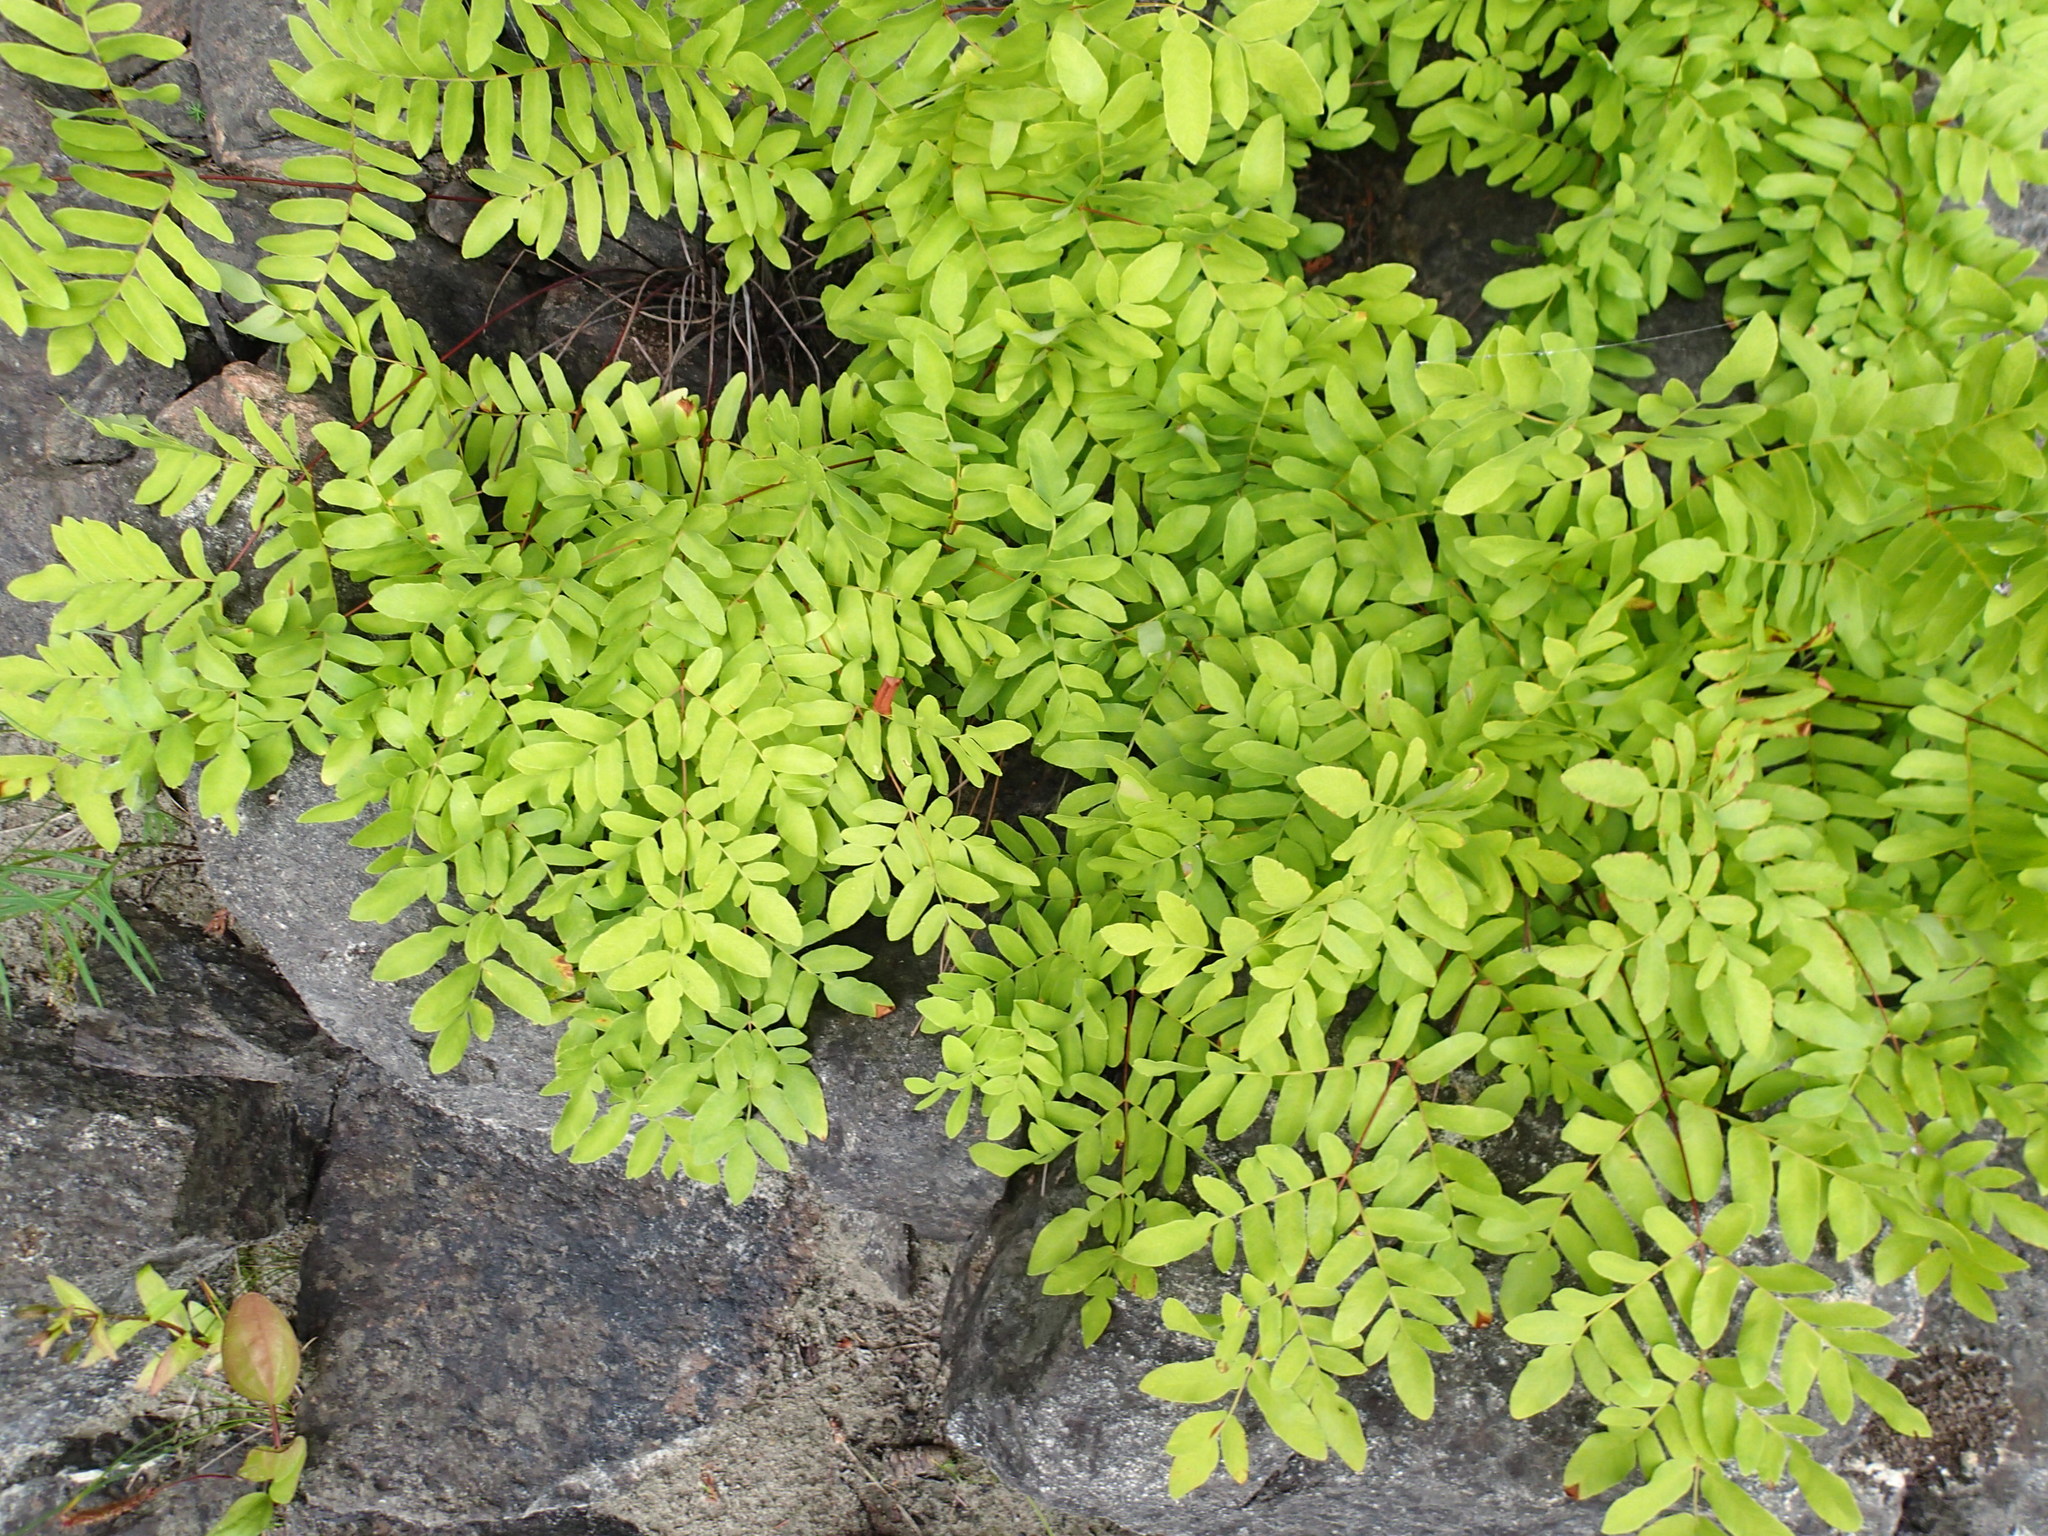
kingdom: Plantae
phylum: Tracheophyta
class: Polypodiopsida
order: Osmundales
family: Osmundaceae
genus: Osmunda
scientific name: Osmunda spectabilis
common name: American royal fern
